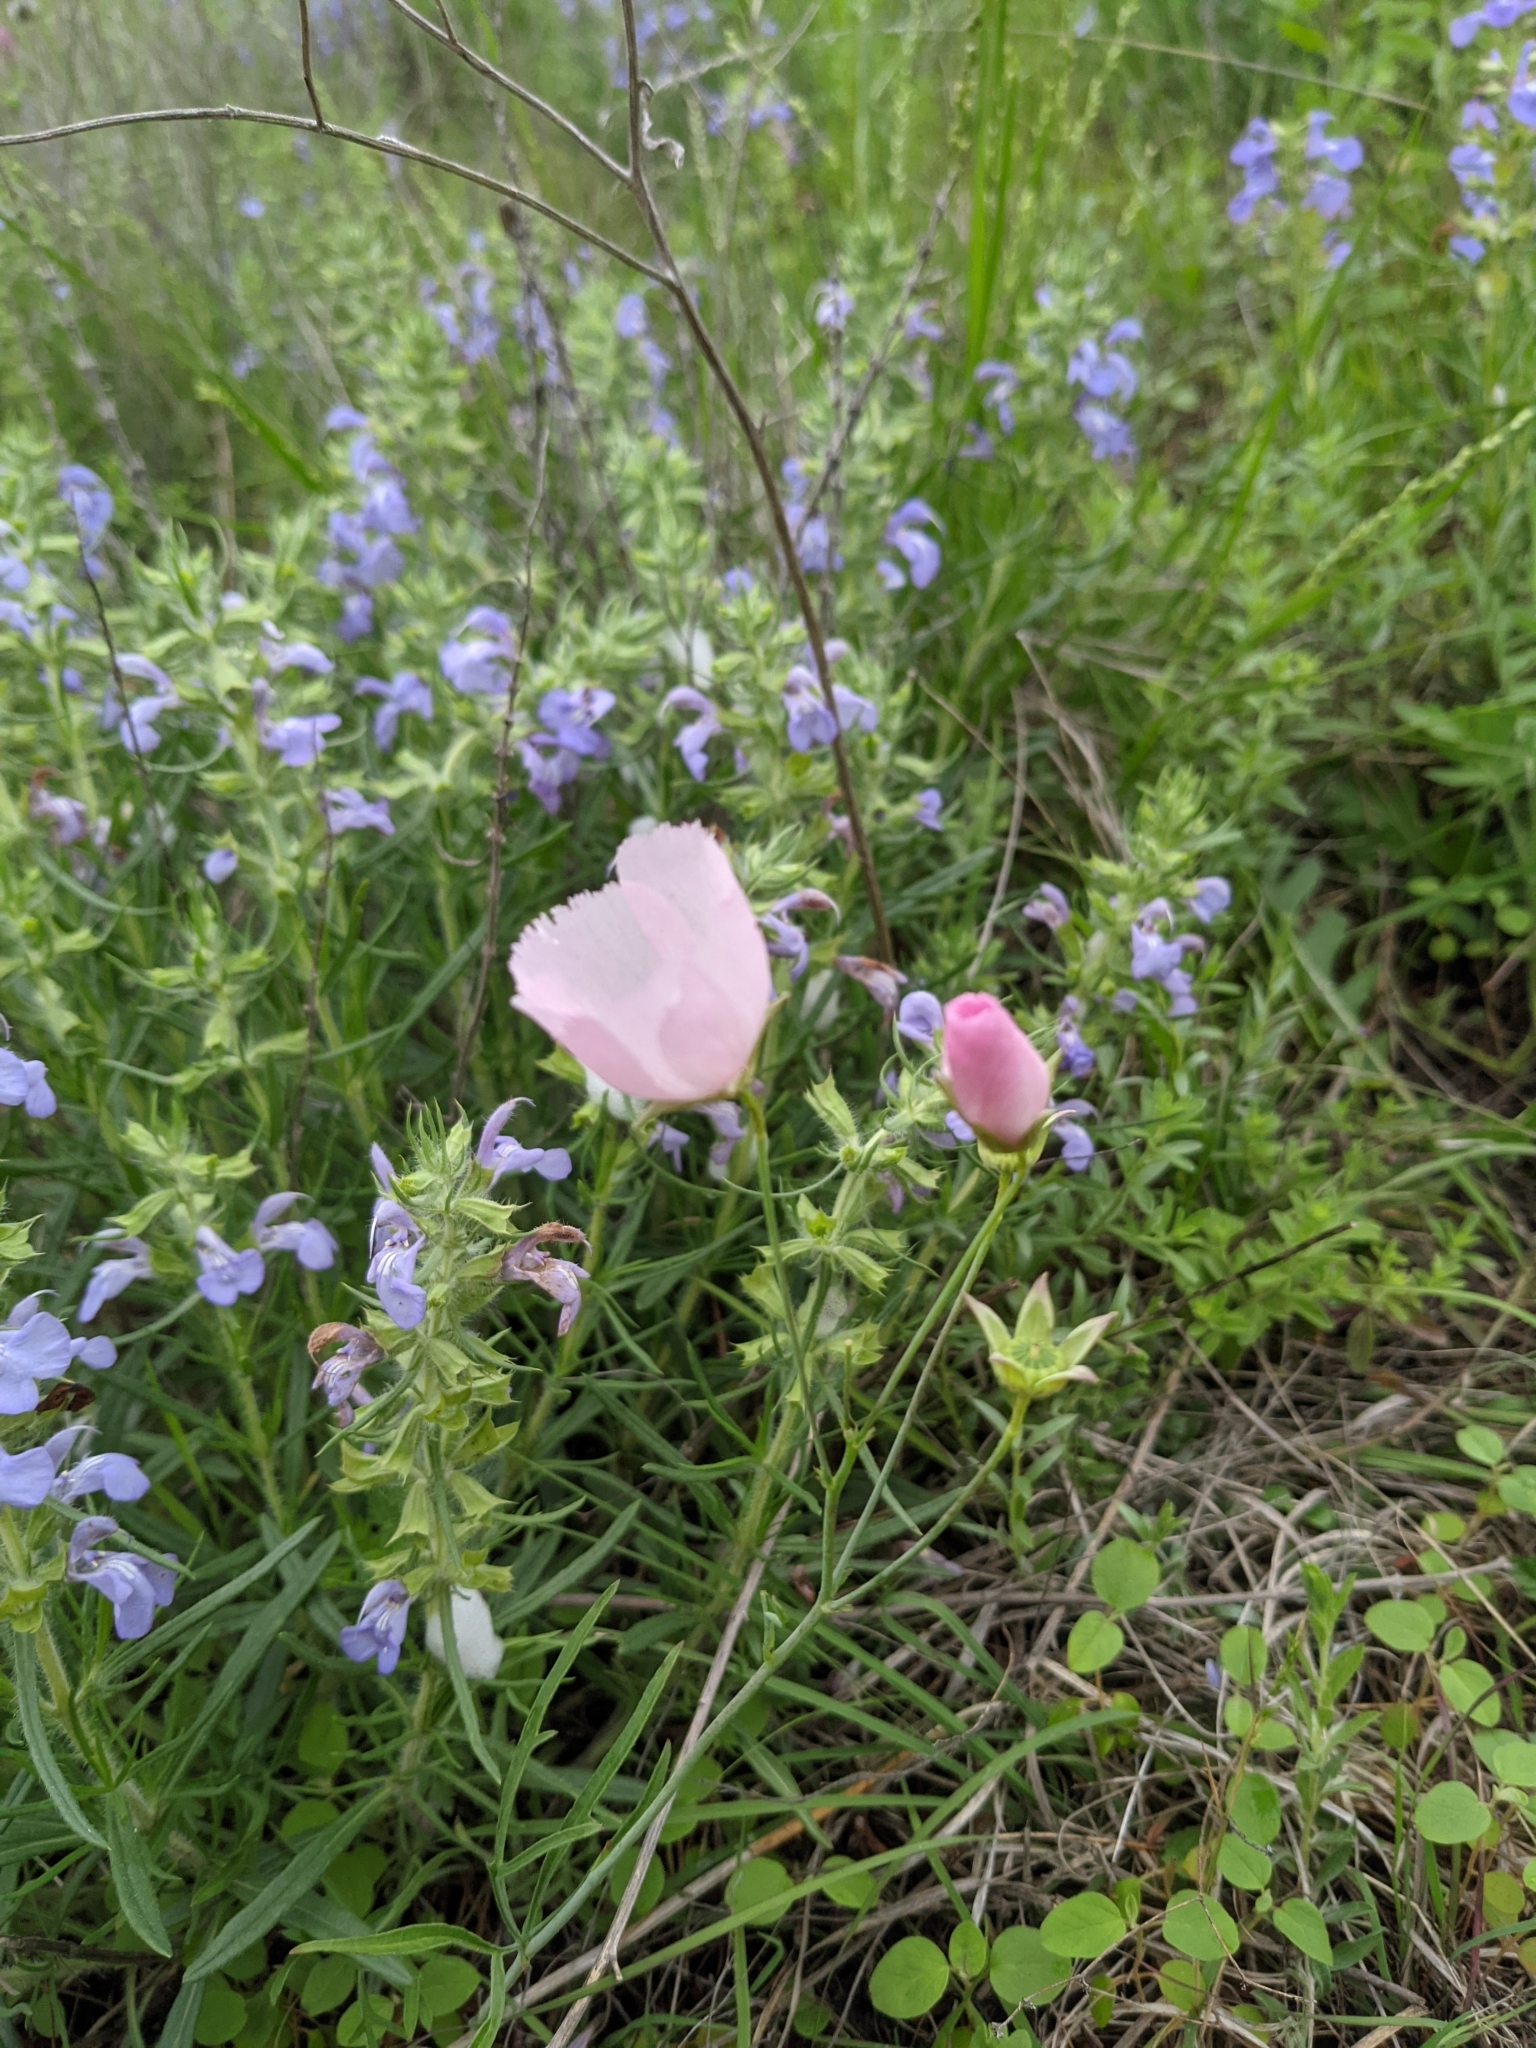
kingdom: Plantae
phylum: Tracheophyta
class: Magnoliopsida
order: Malvales
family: Malvaceae
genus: Callirhoe
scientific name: Callirhoe pedata
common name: Finger poppy-mallow
